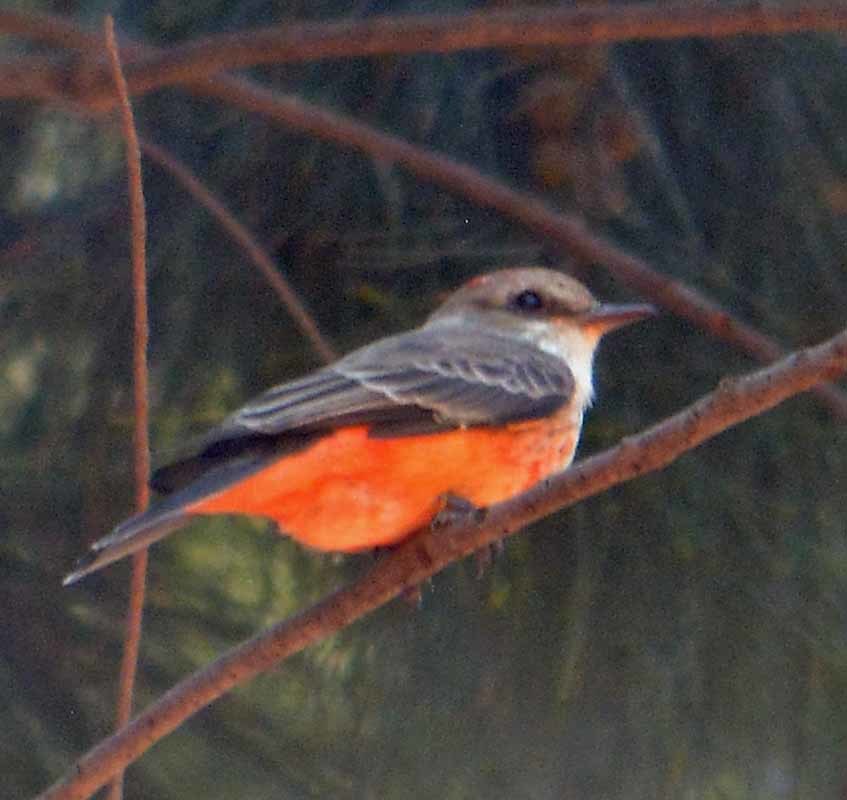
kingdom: Animalia
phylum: Chordata
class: Aves
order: Passeriformes
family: Tyrannidae
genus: Pyrocephalus
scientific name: Pyrocephalus rubinus
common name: Vermilion flycatcher
